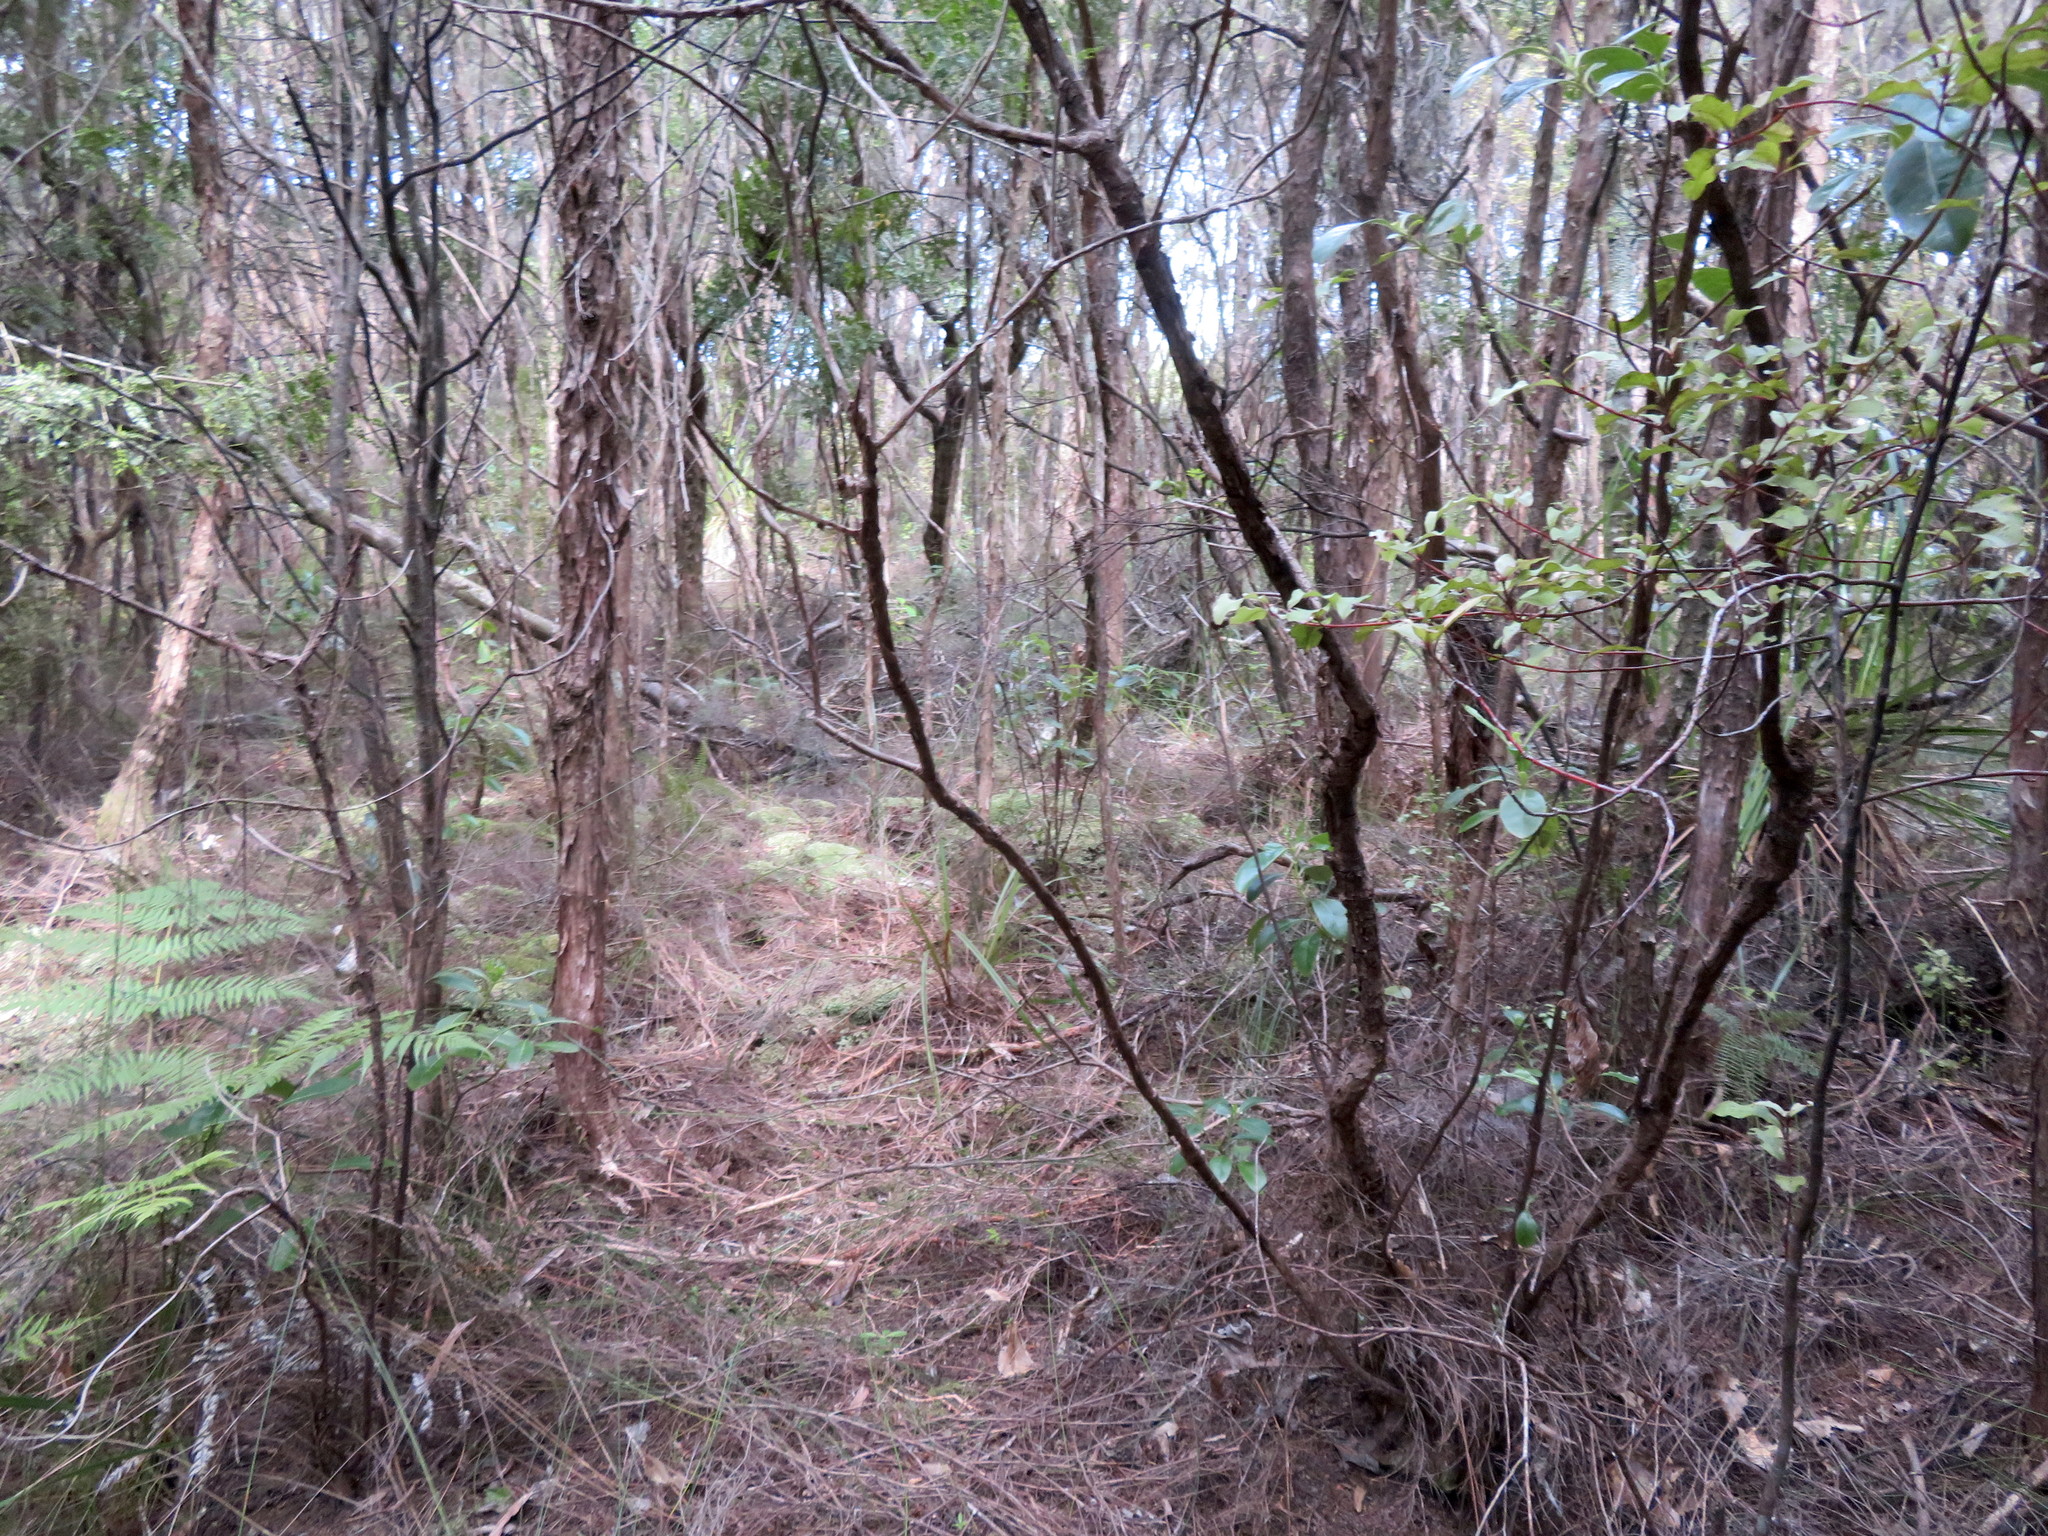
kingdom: Plantae
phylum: Tracheophyta
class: Magnoliopsida
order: Ericales
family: Primulaceae
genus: Myrsine
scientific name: Myrsine australis
